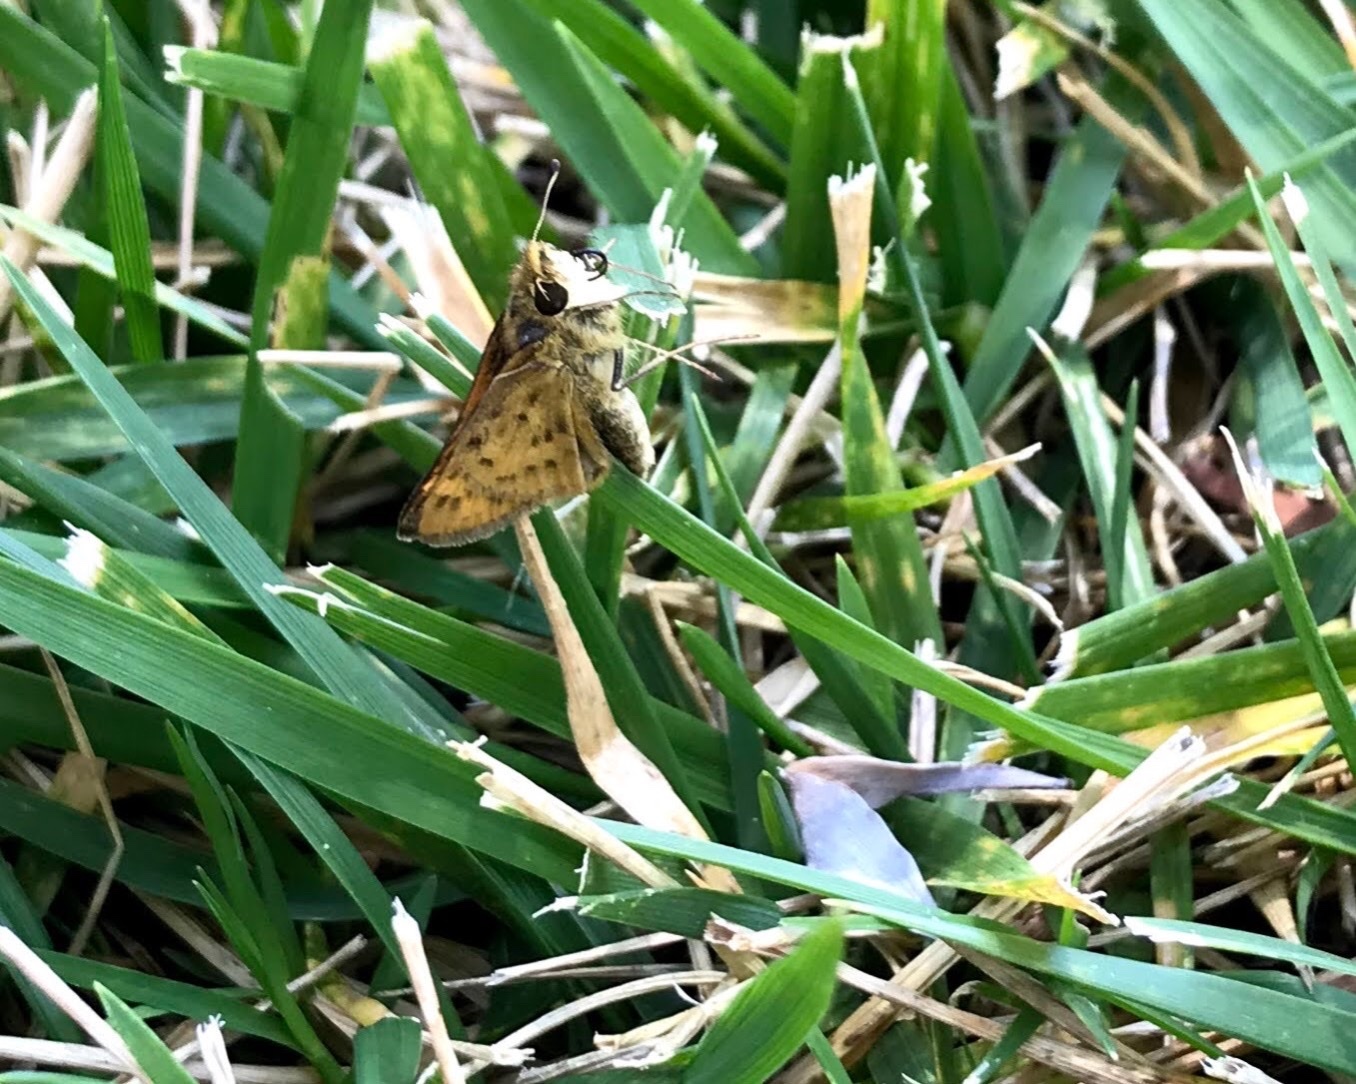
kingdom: Animalia
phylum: Arthropoda
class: Insecta
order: Lepidoptera
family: Hesperiidae
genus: Hylephila
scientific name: Hylephila phyleus
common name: Fiery skipper
